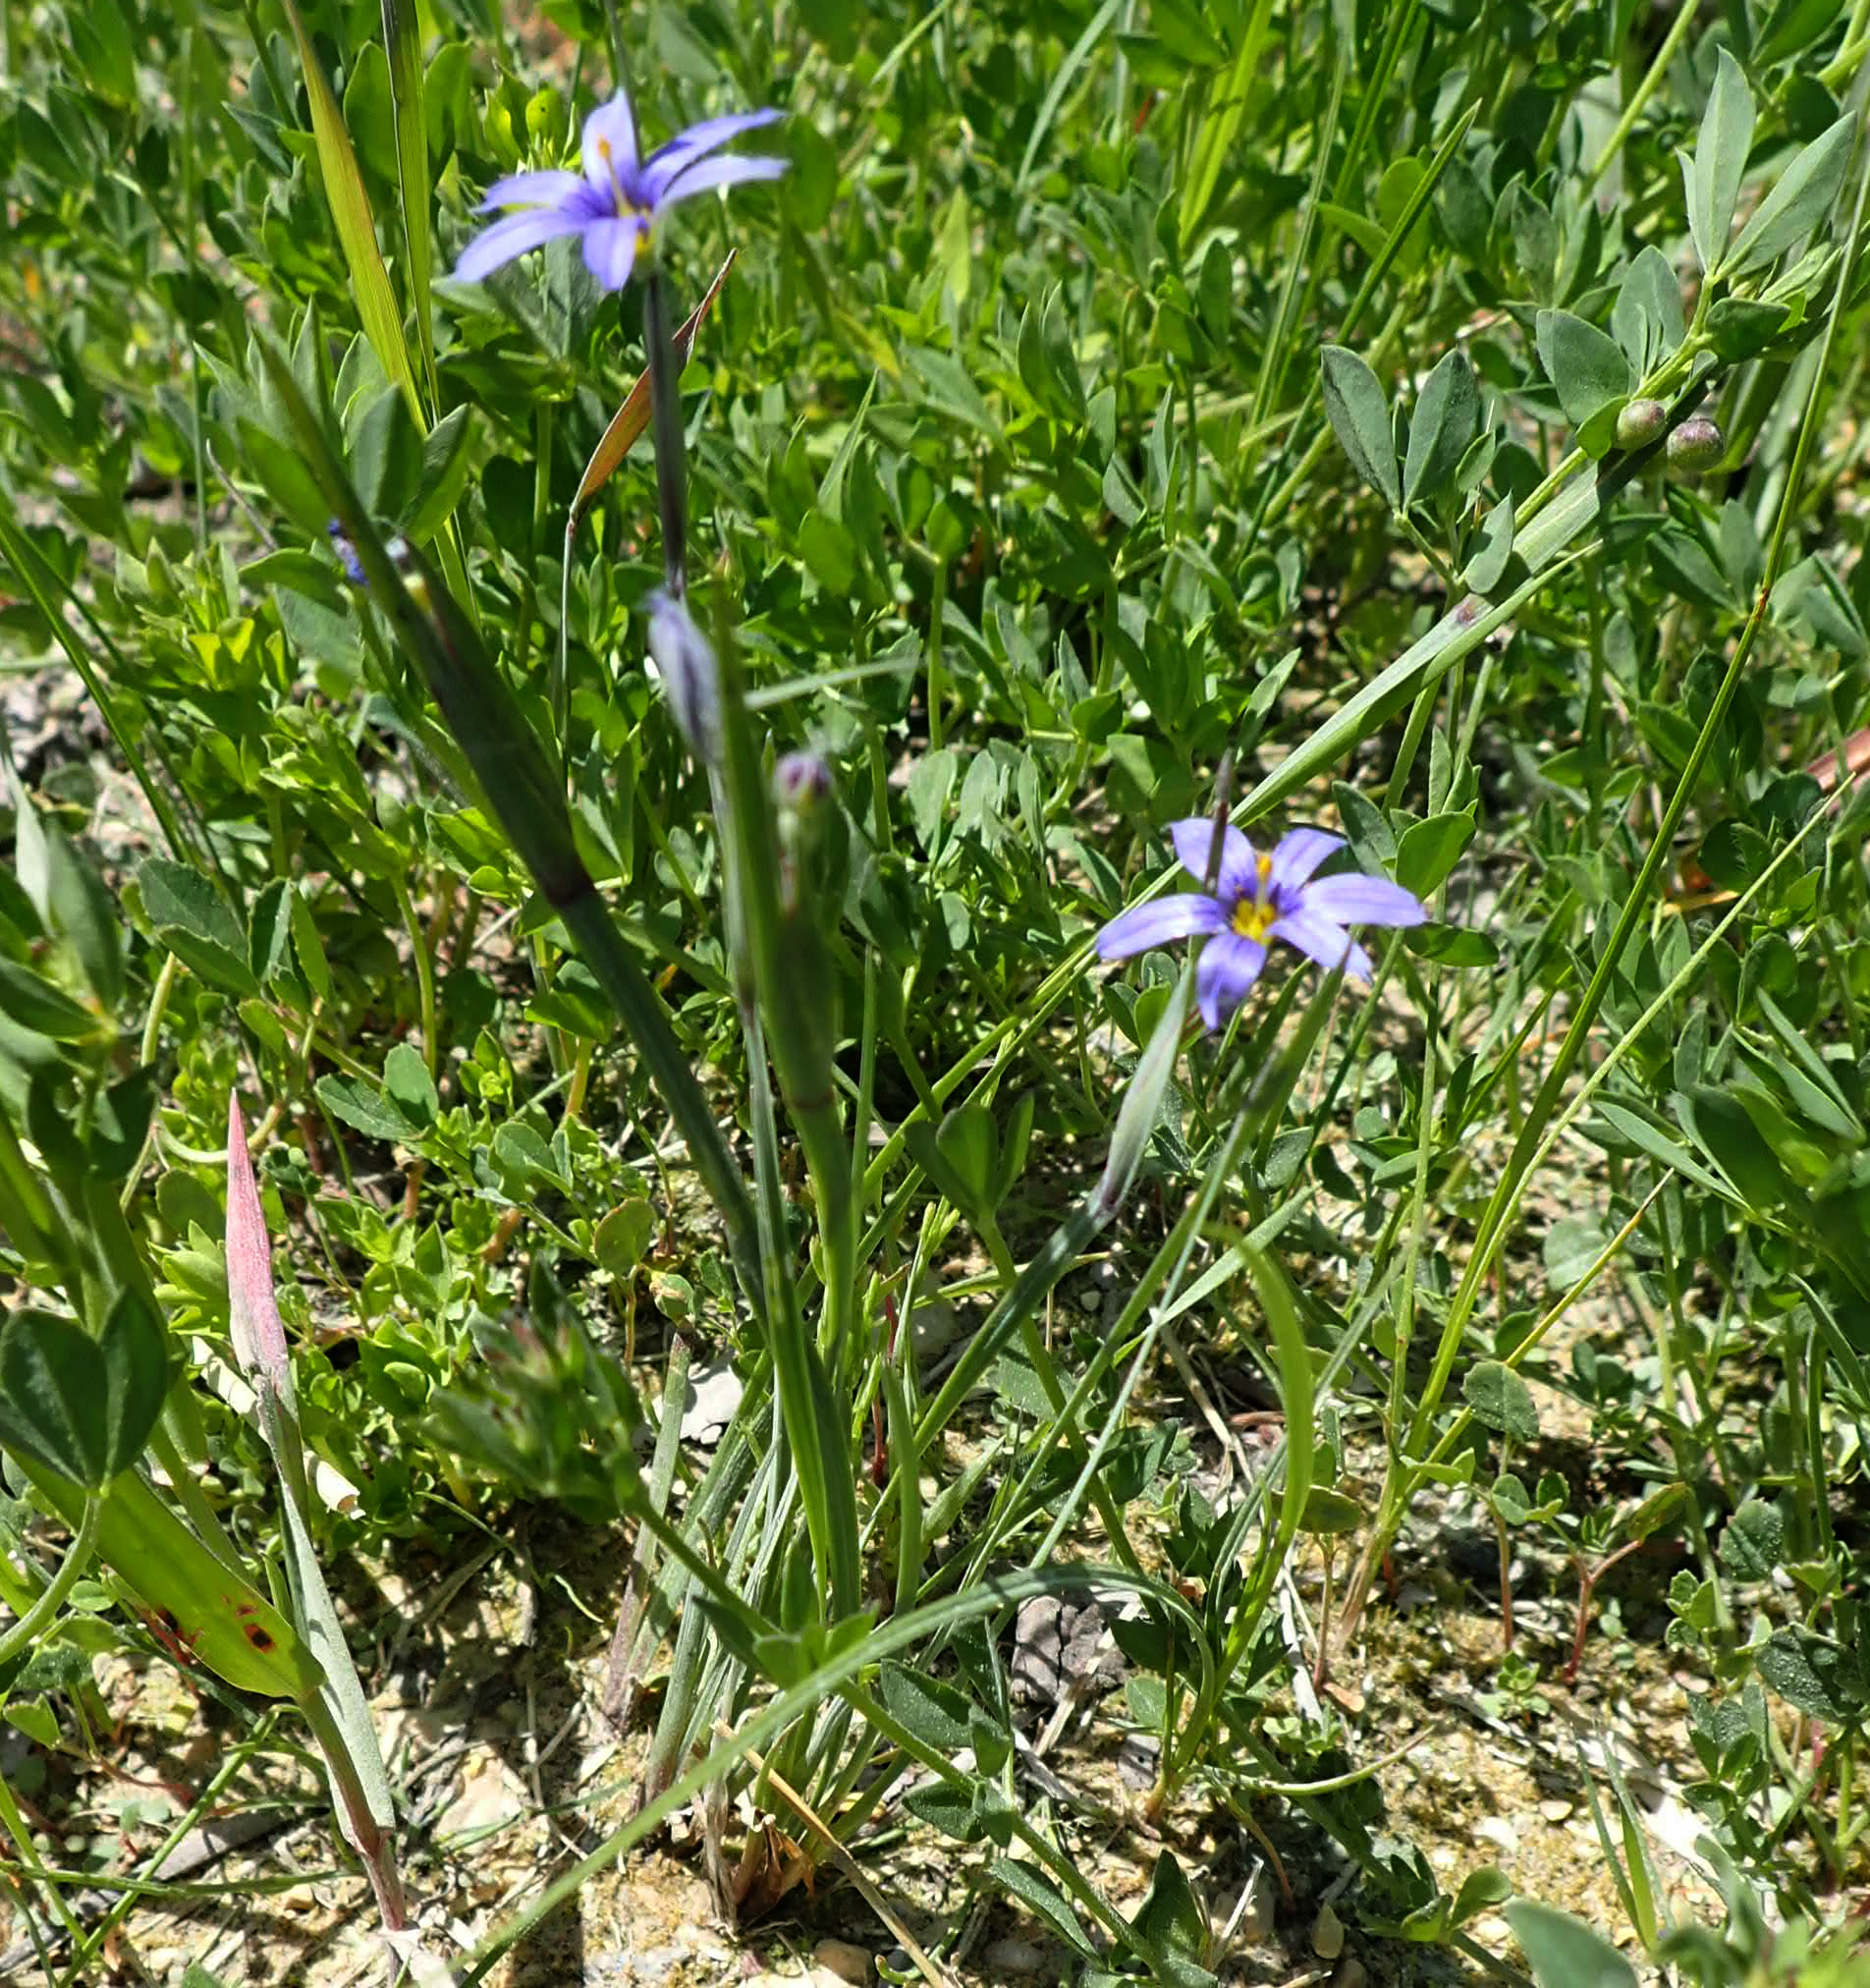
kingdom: Plantae
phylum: Tracheophyta
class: Liliopsida
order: Asparagales
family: Iridaceae
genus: Sisyrinchium
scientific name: Sisyrinchium montanum
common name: American blue-eyed-grass
